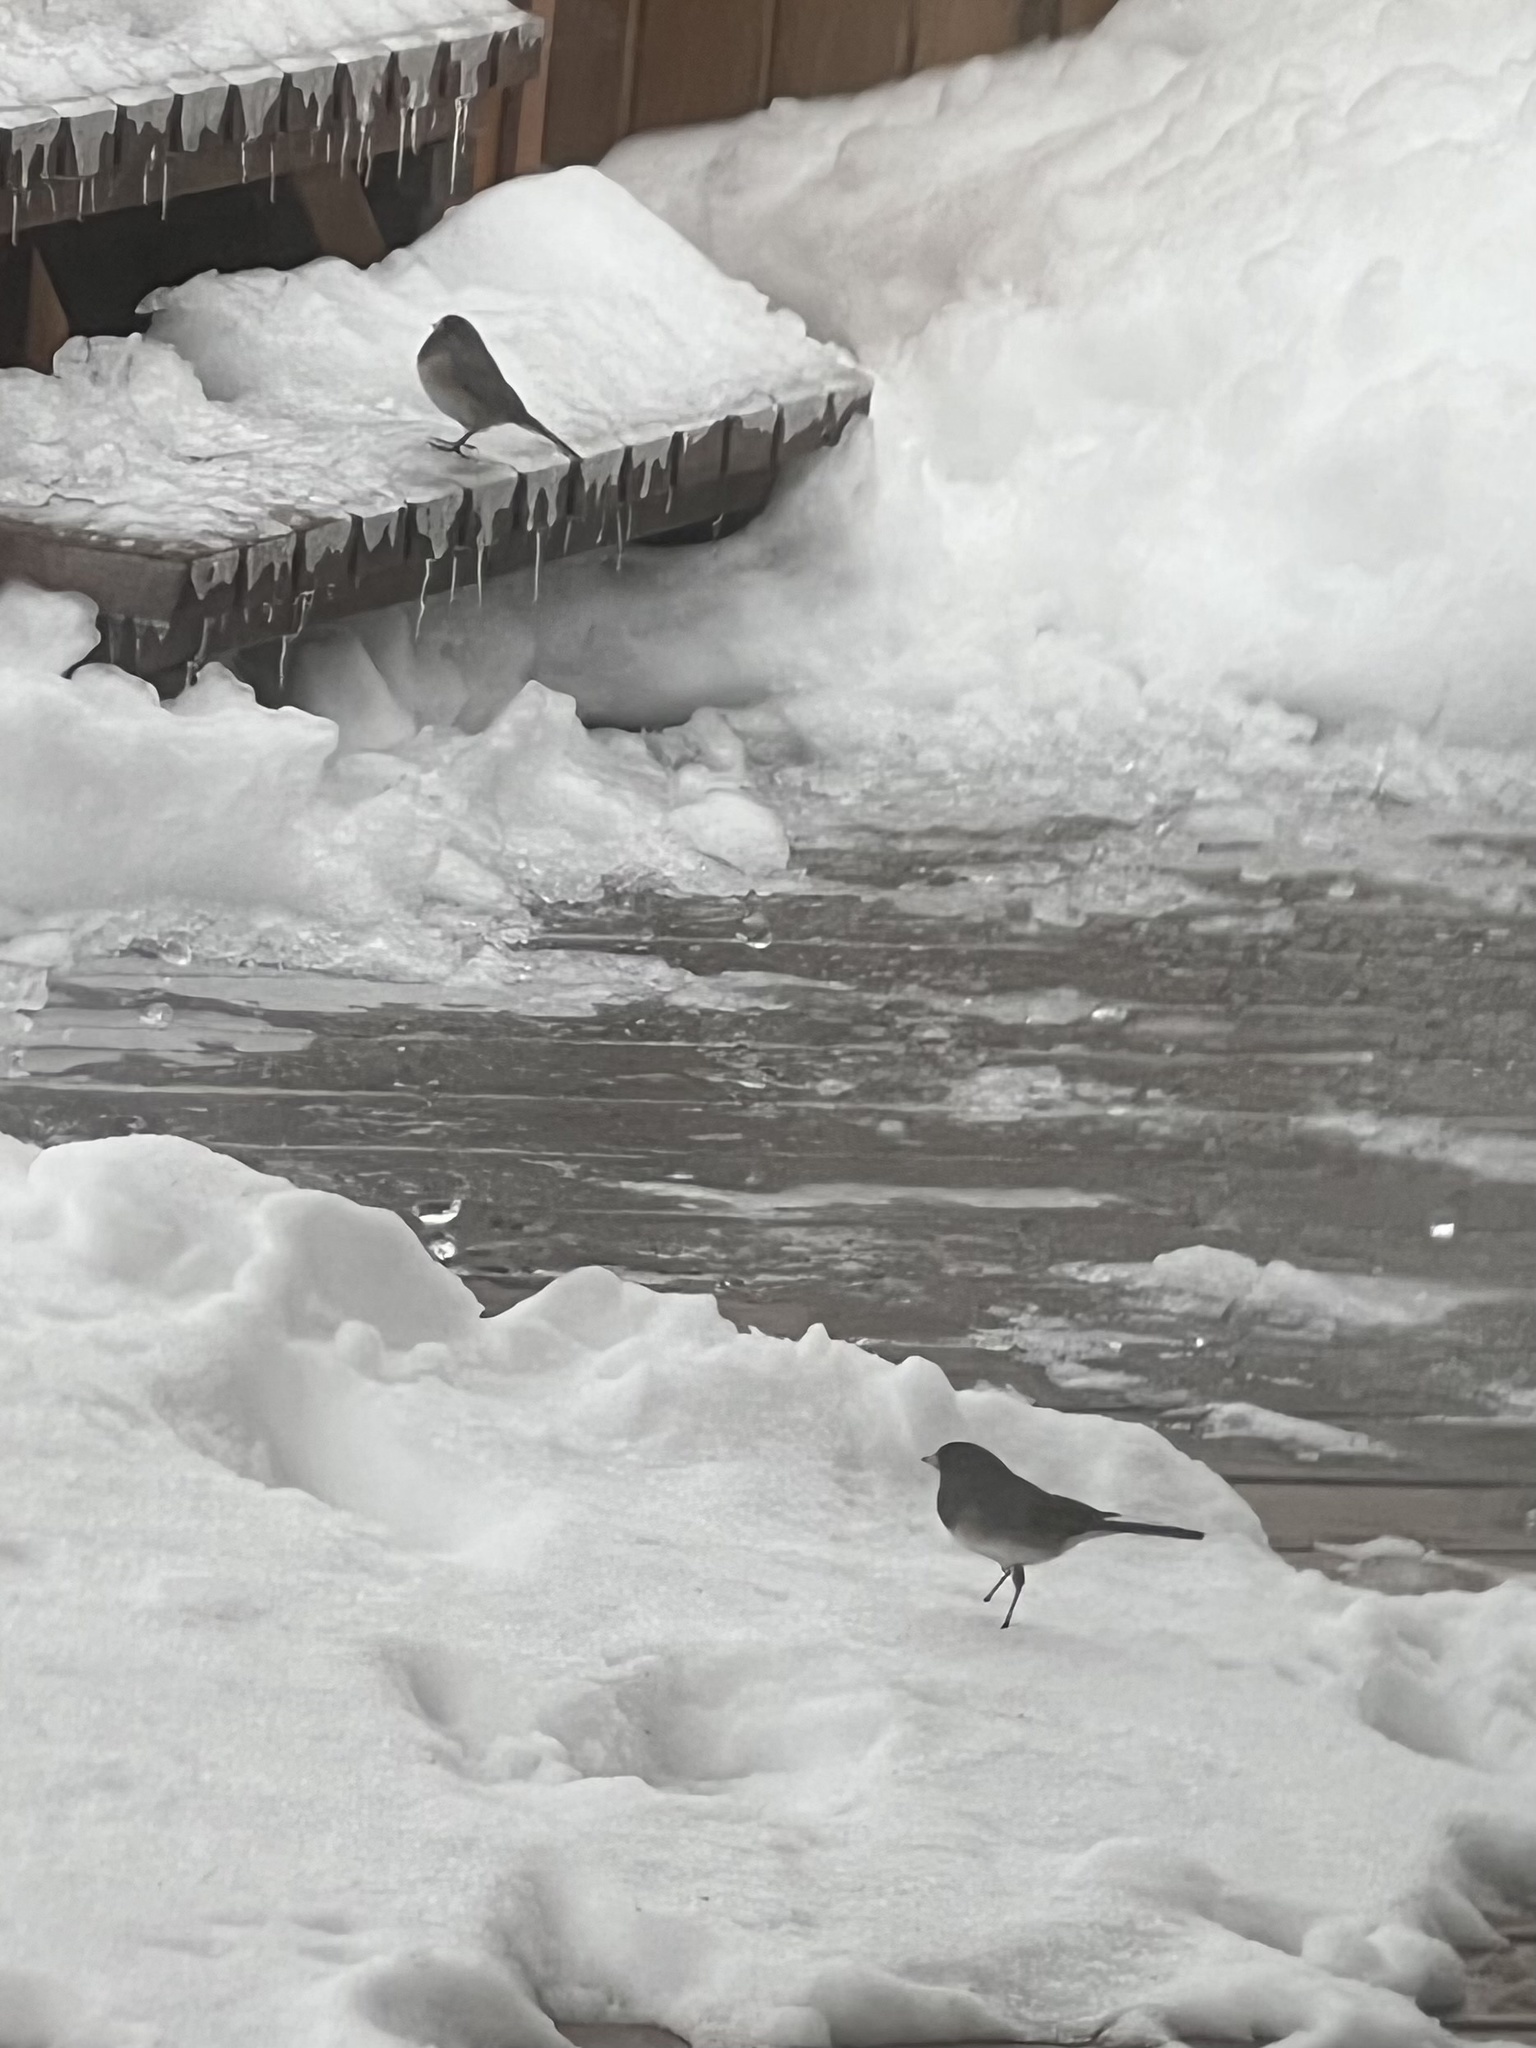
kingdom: Animalia
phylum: Chordata
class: Aves
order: Passeriformes
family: Passerellidae
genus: Junco
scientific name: Junco hyemalis
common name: Dark-eyed junco
